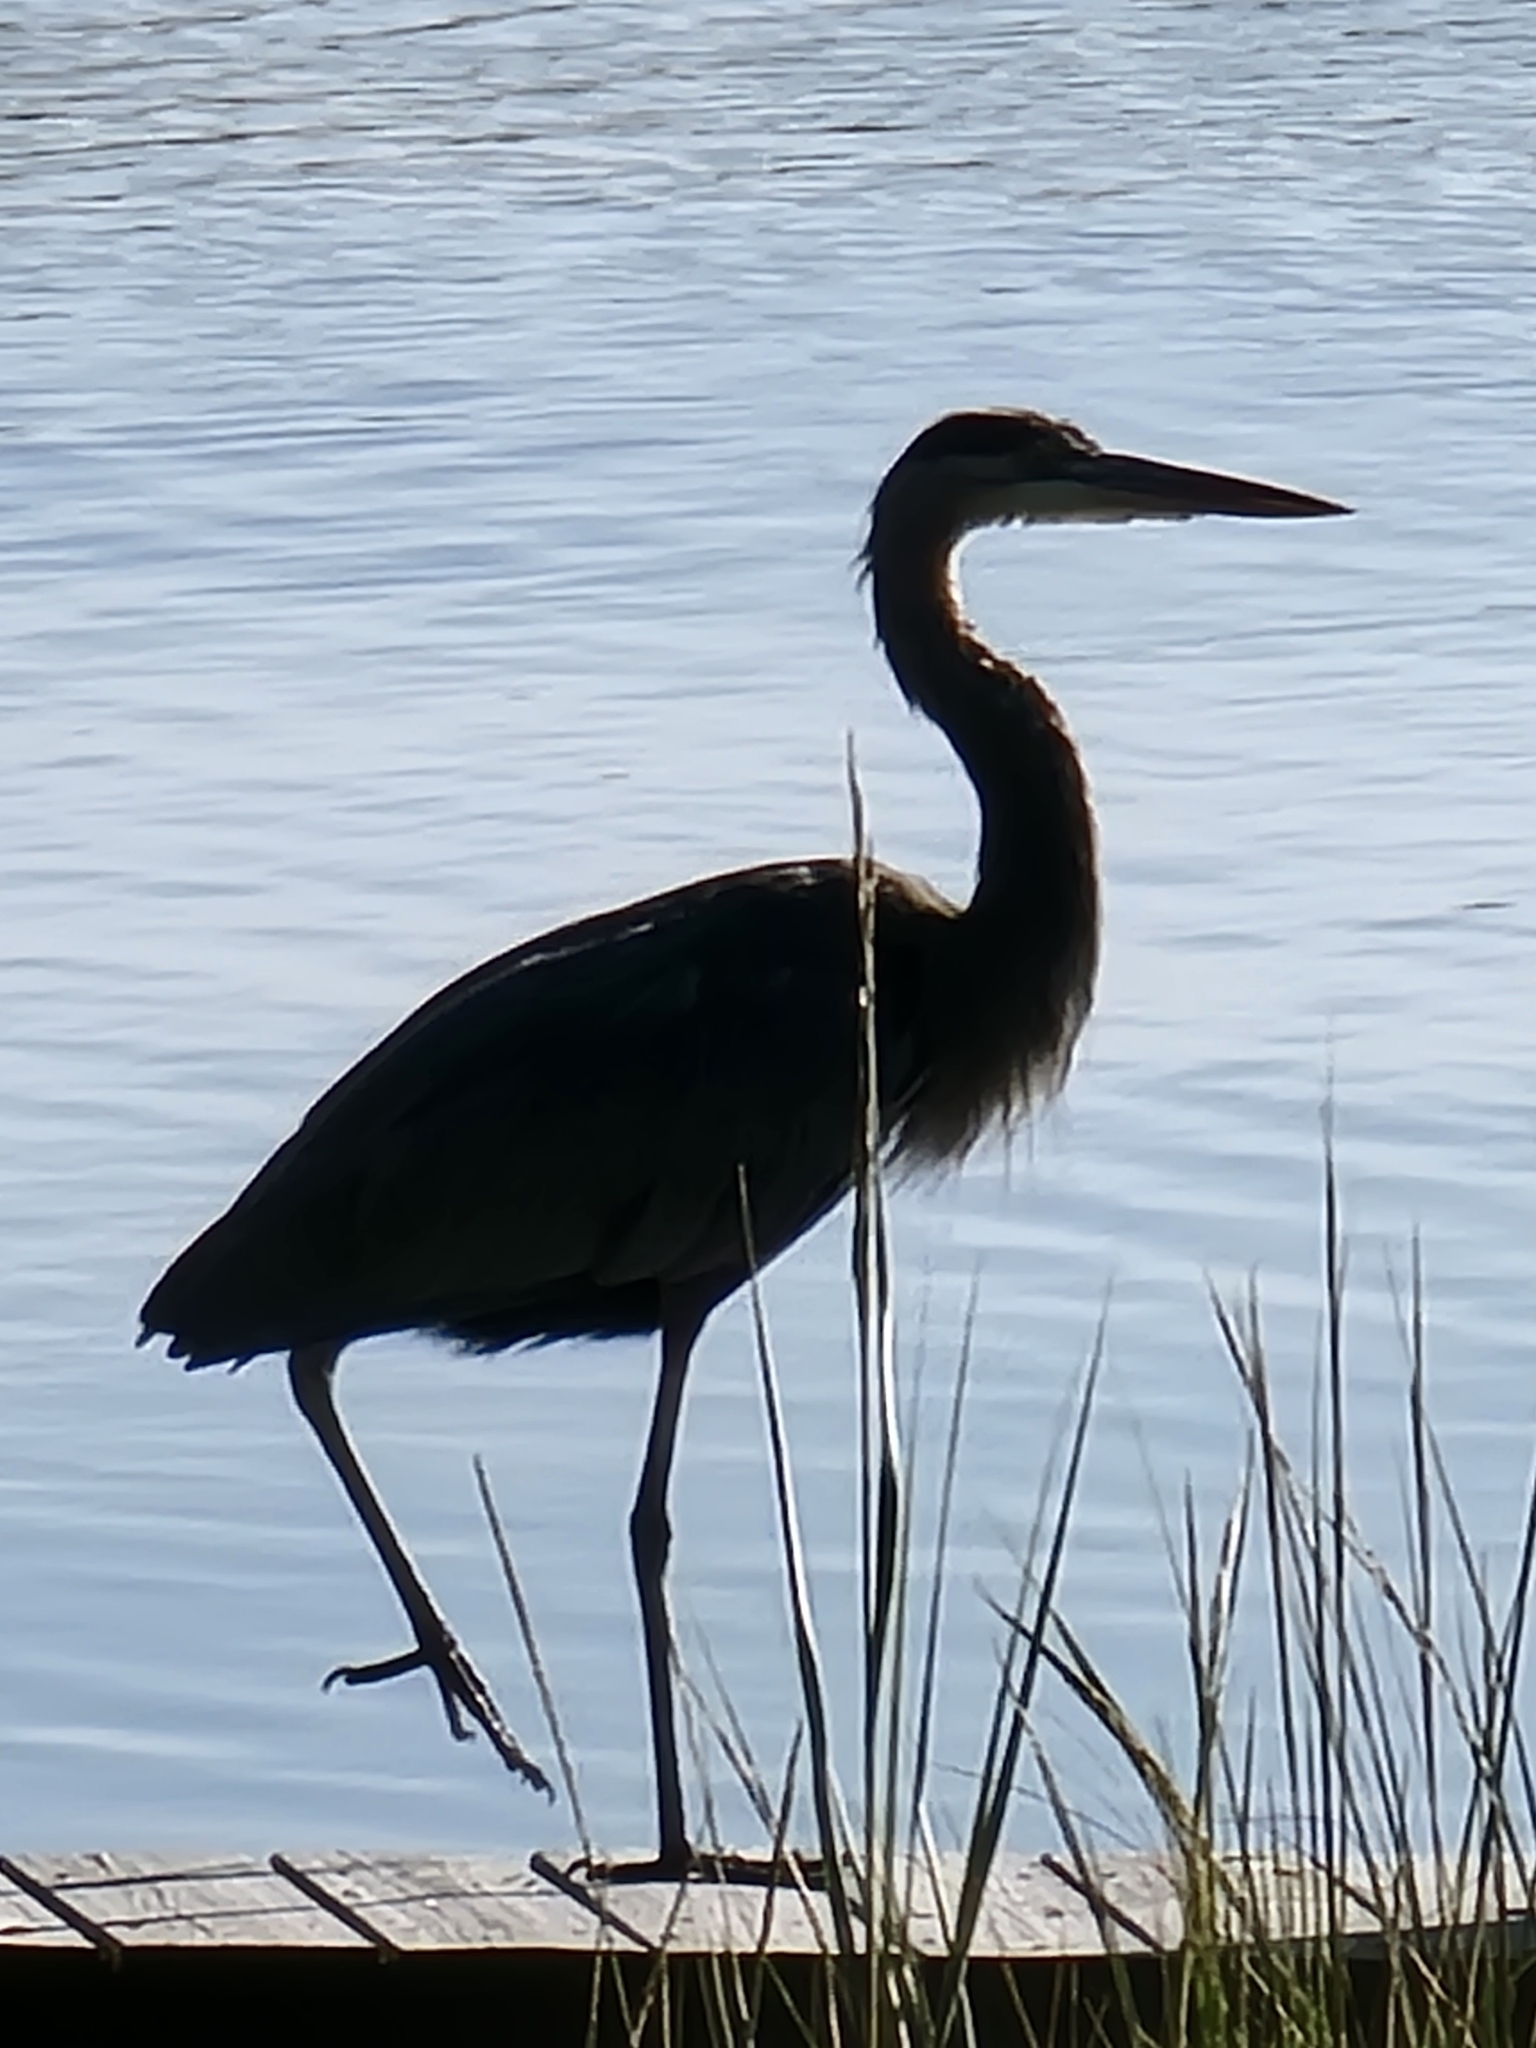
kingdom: Animalia
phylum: Chordata
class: Aves
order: Pelecaniformes
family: Ardeidae
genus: Ardea
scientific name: Ardea herodias
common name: Great blue heron
